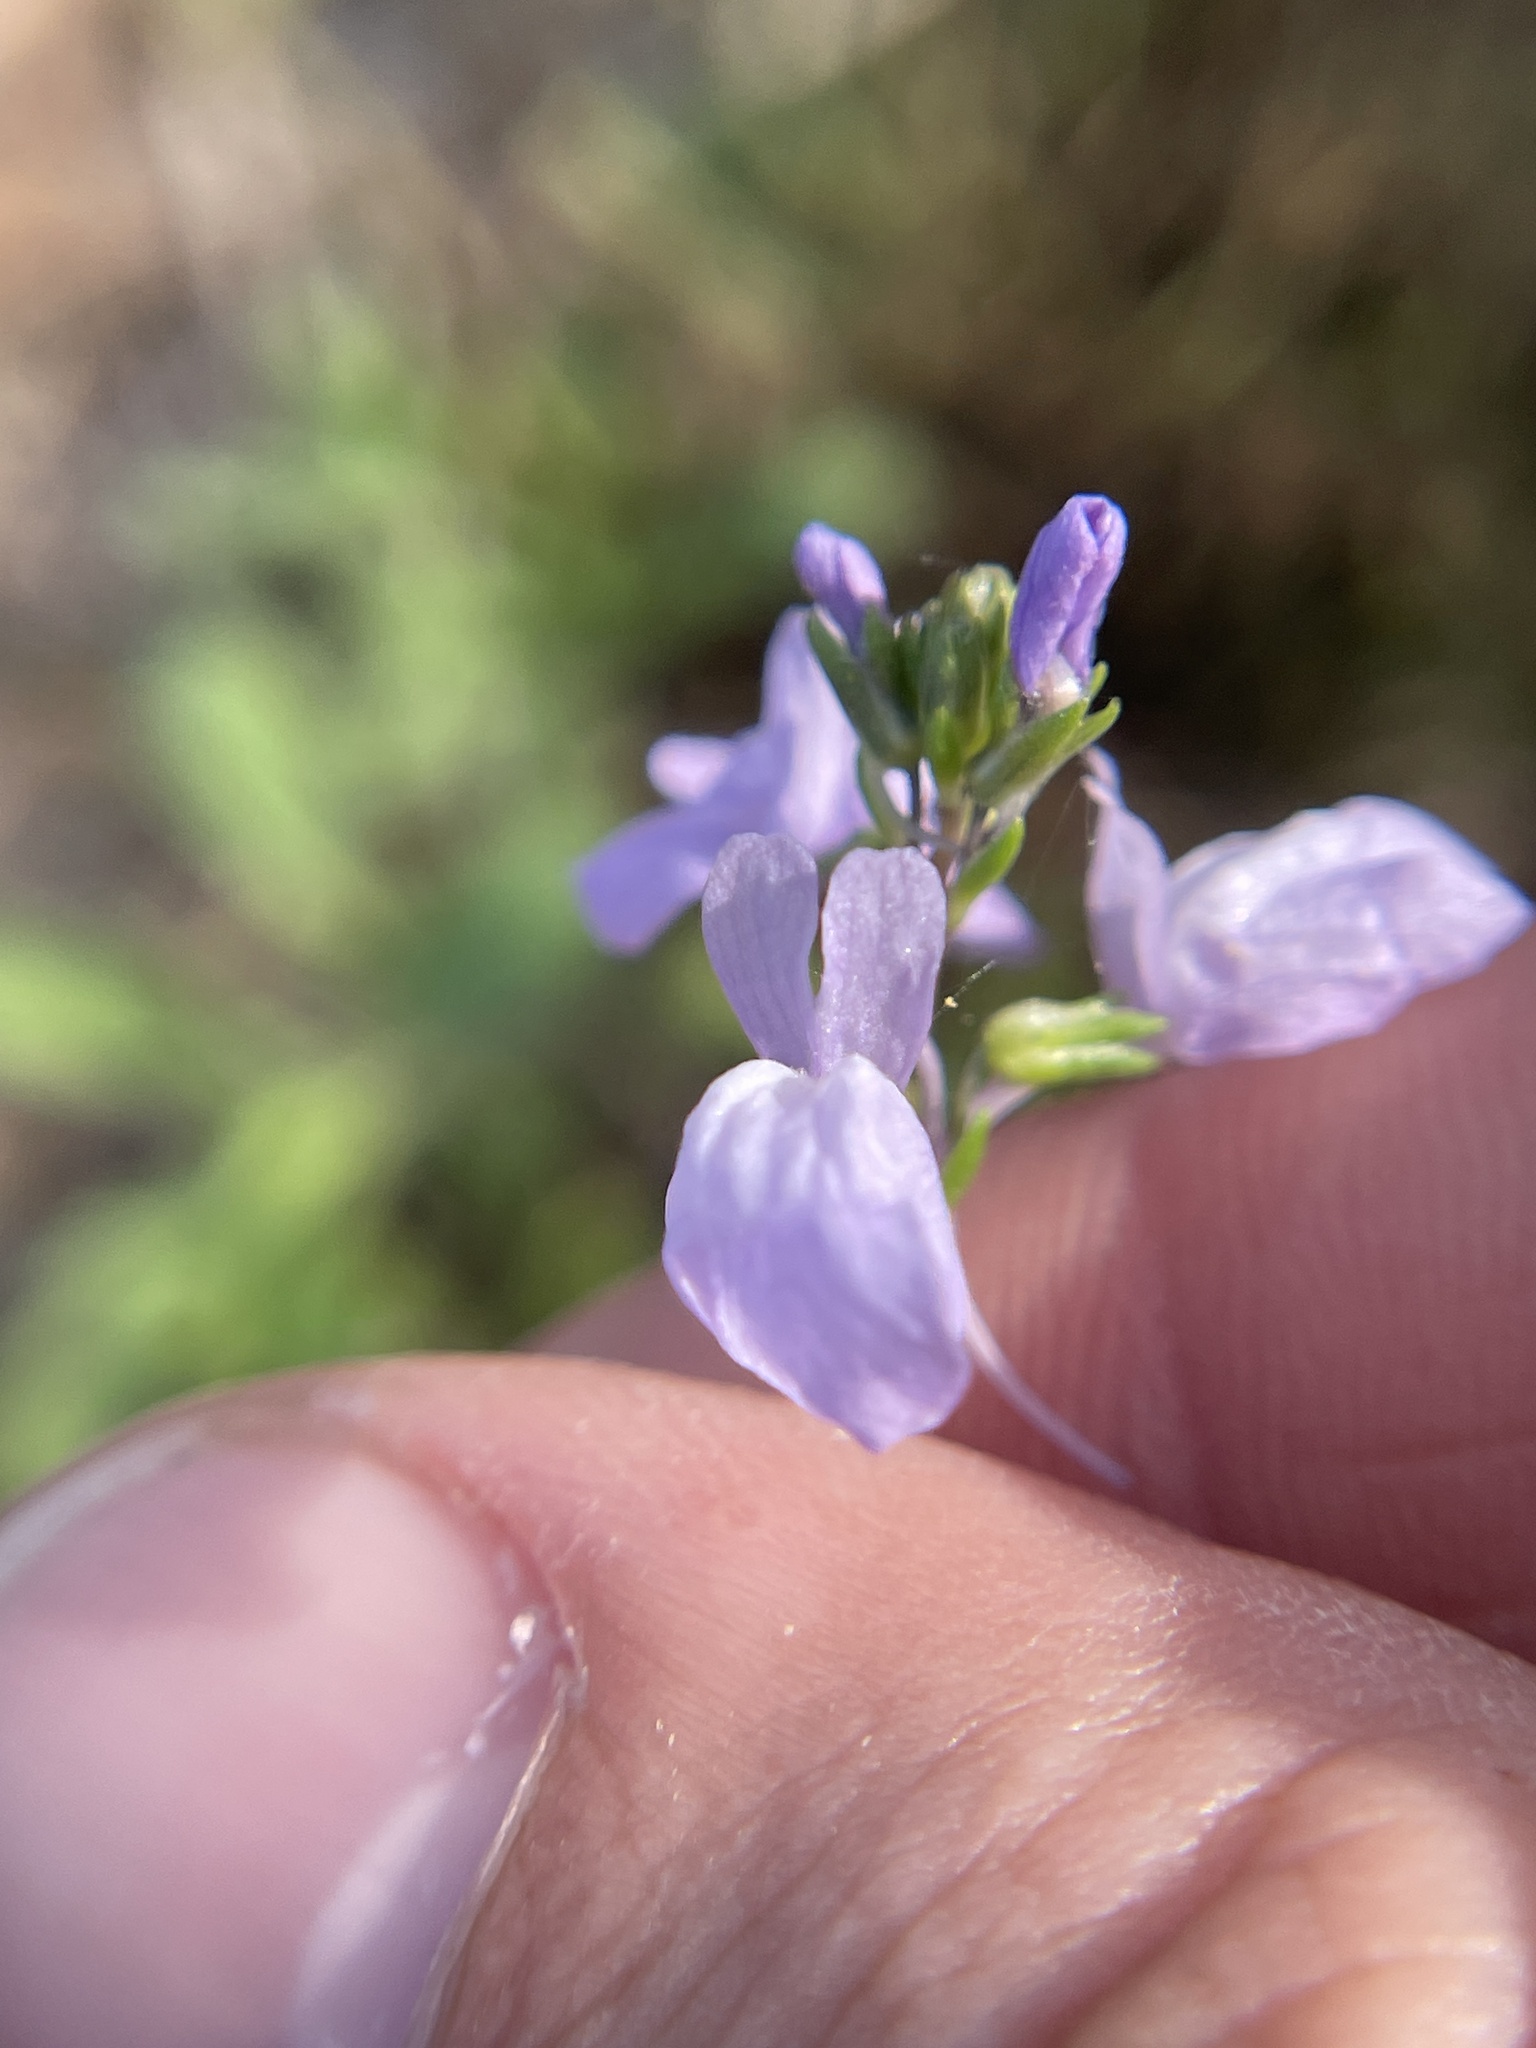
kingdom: Plantae
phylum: Tracheophyta
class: Magnoliopsida
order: Lamiales
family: Plantaginaceae
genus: Nuttallanthus
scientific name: Nuttallanthus texanus
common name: Texas toadflax
